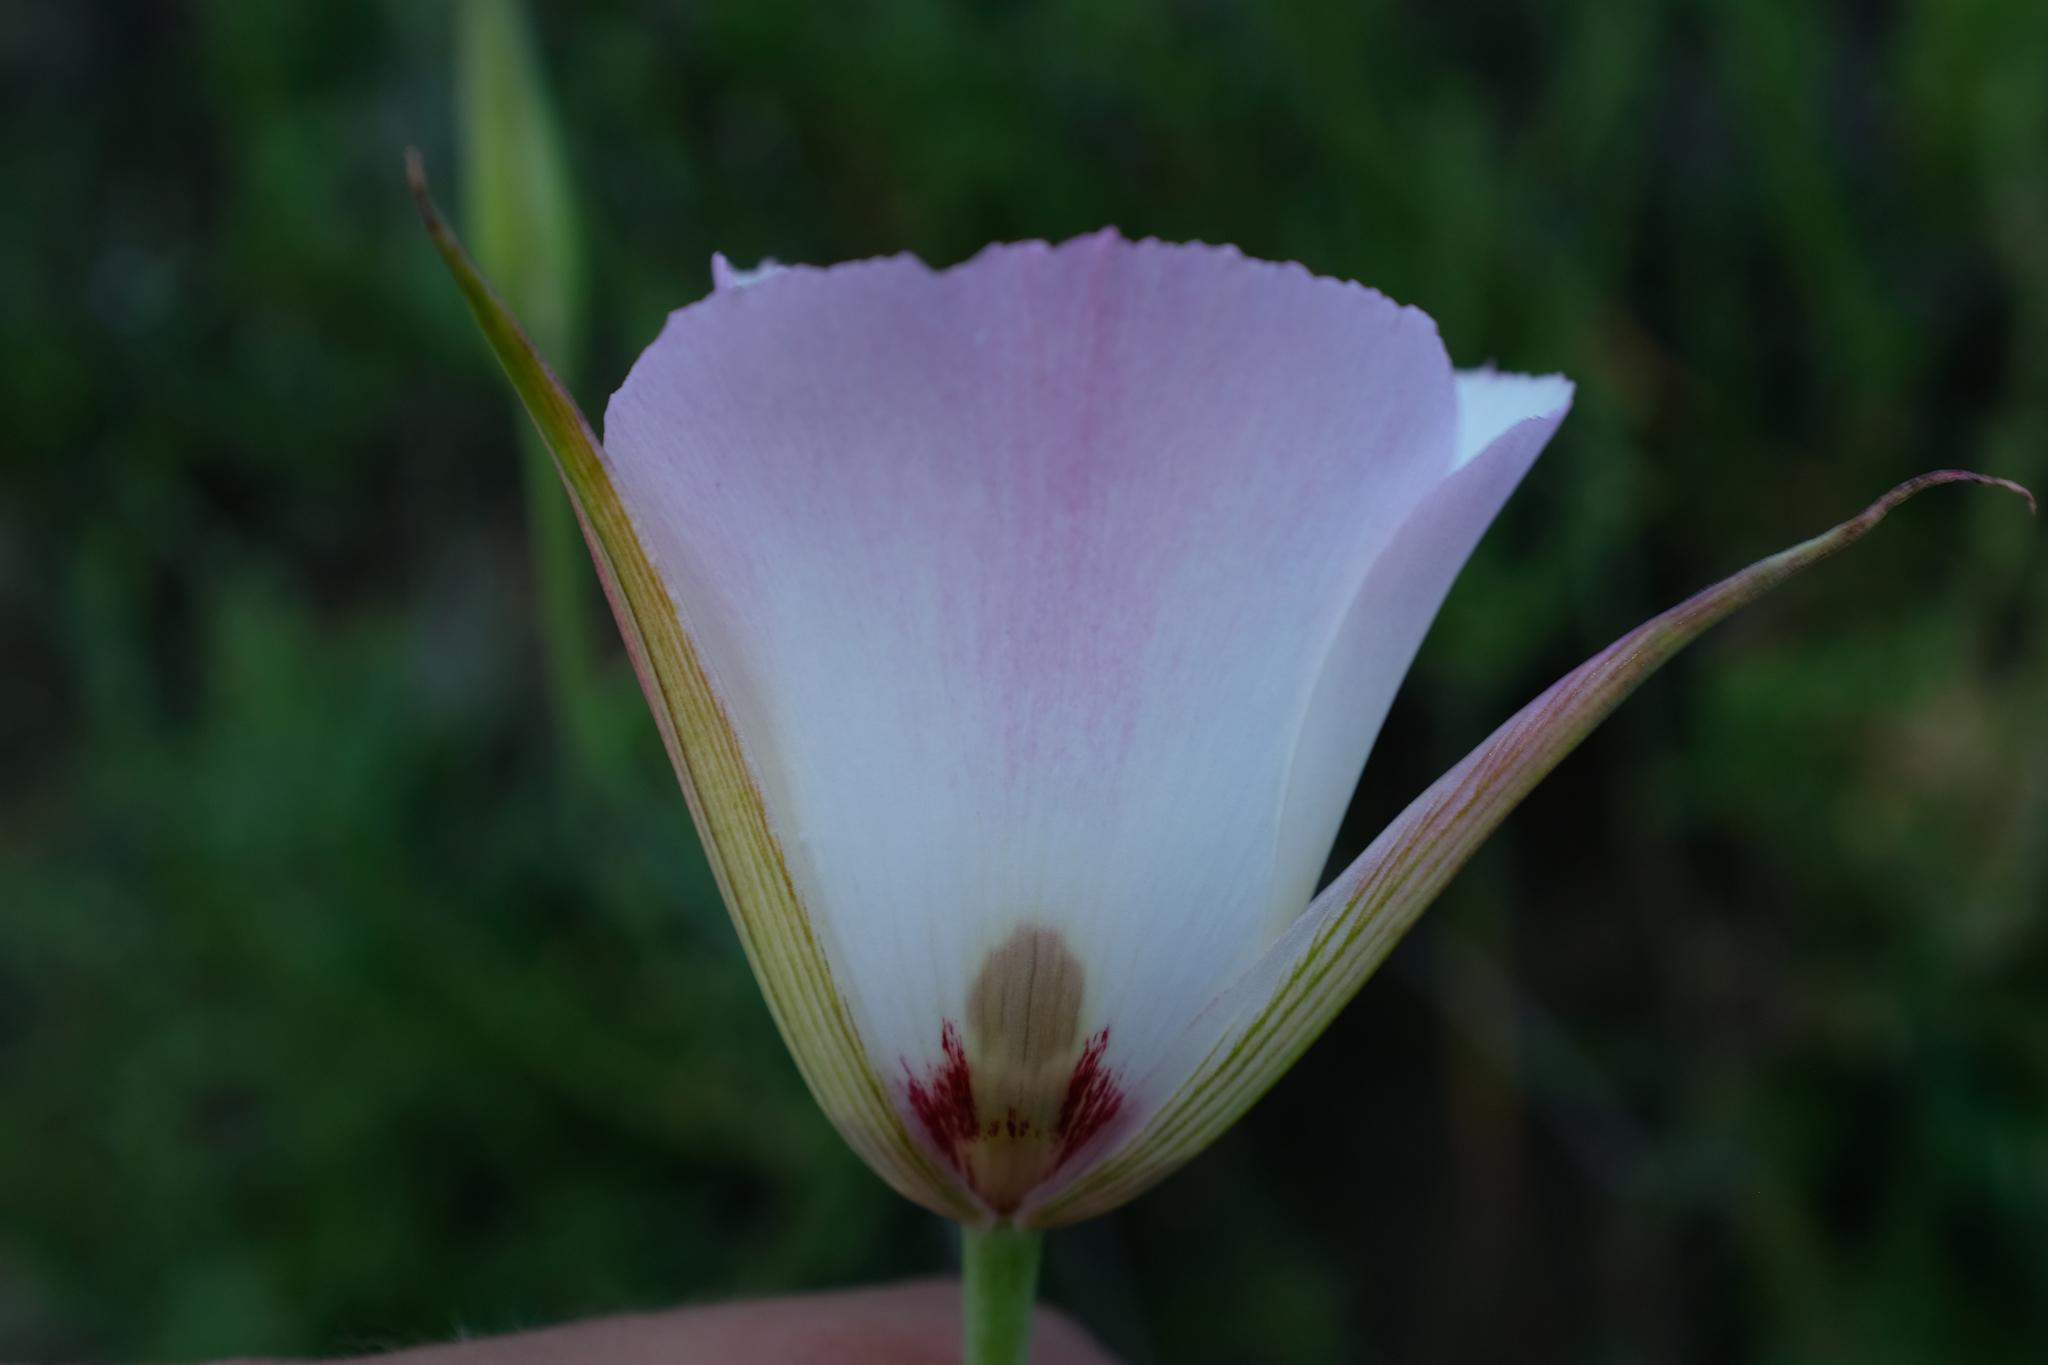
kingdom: Plantae
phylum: Tracheophyta
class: Liliopsida
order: Liliales
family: Liliaceae
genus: Calochortus
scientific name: Calochortus simulans
